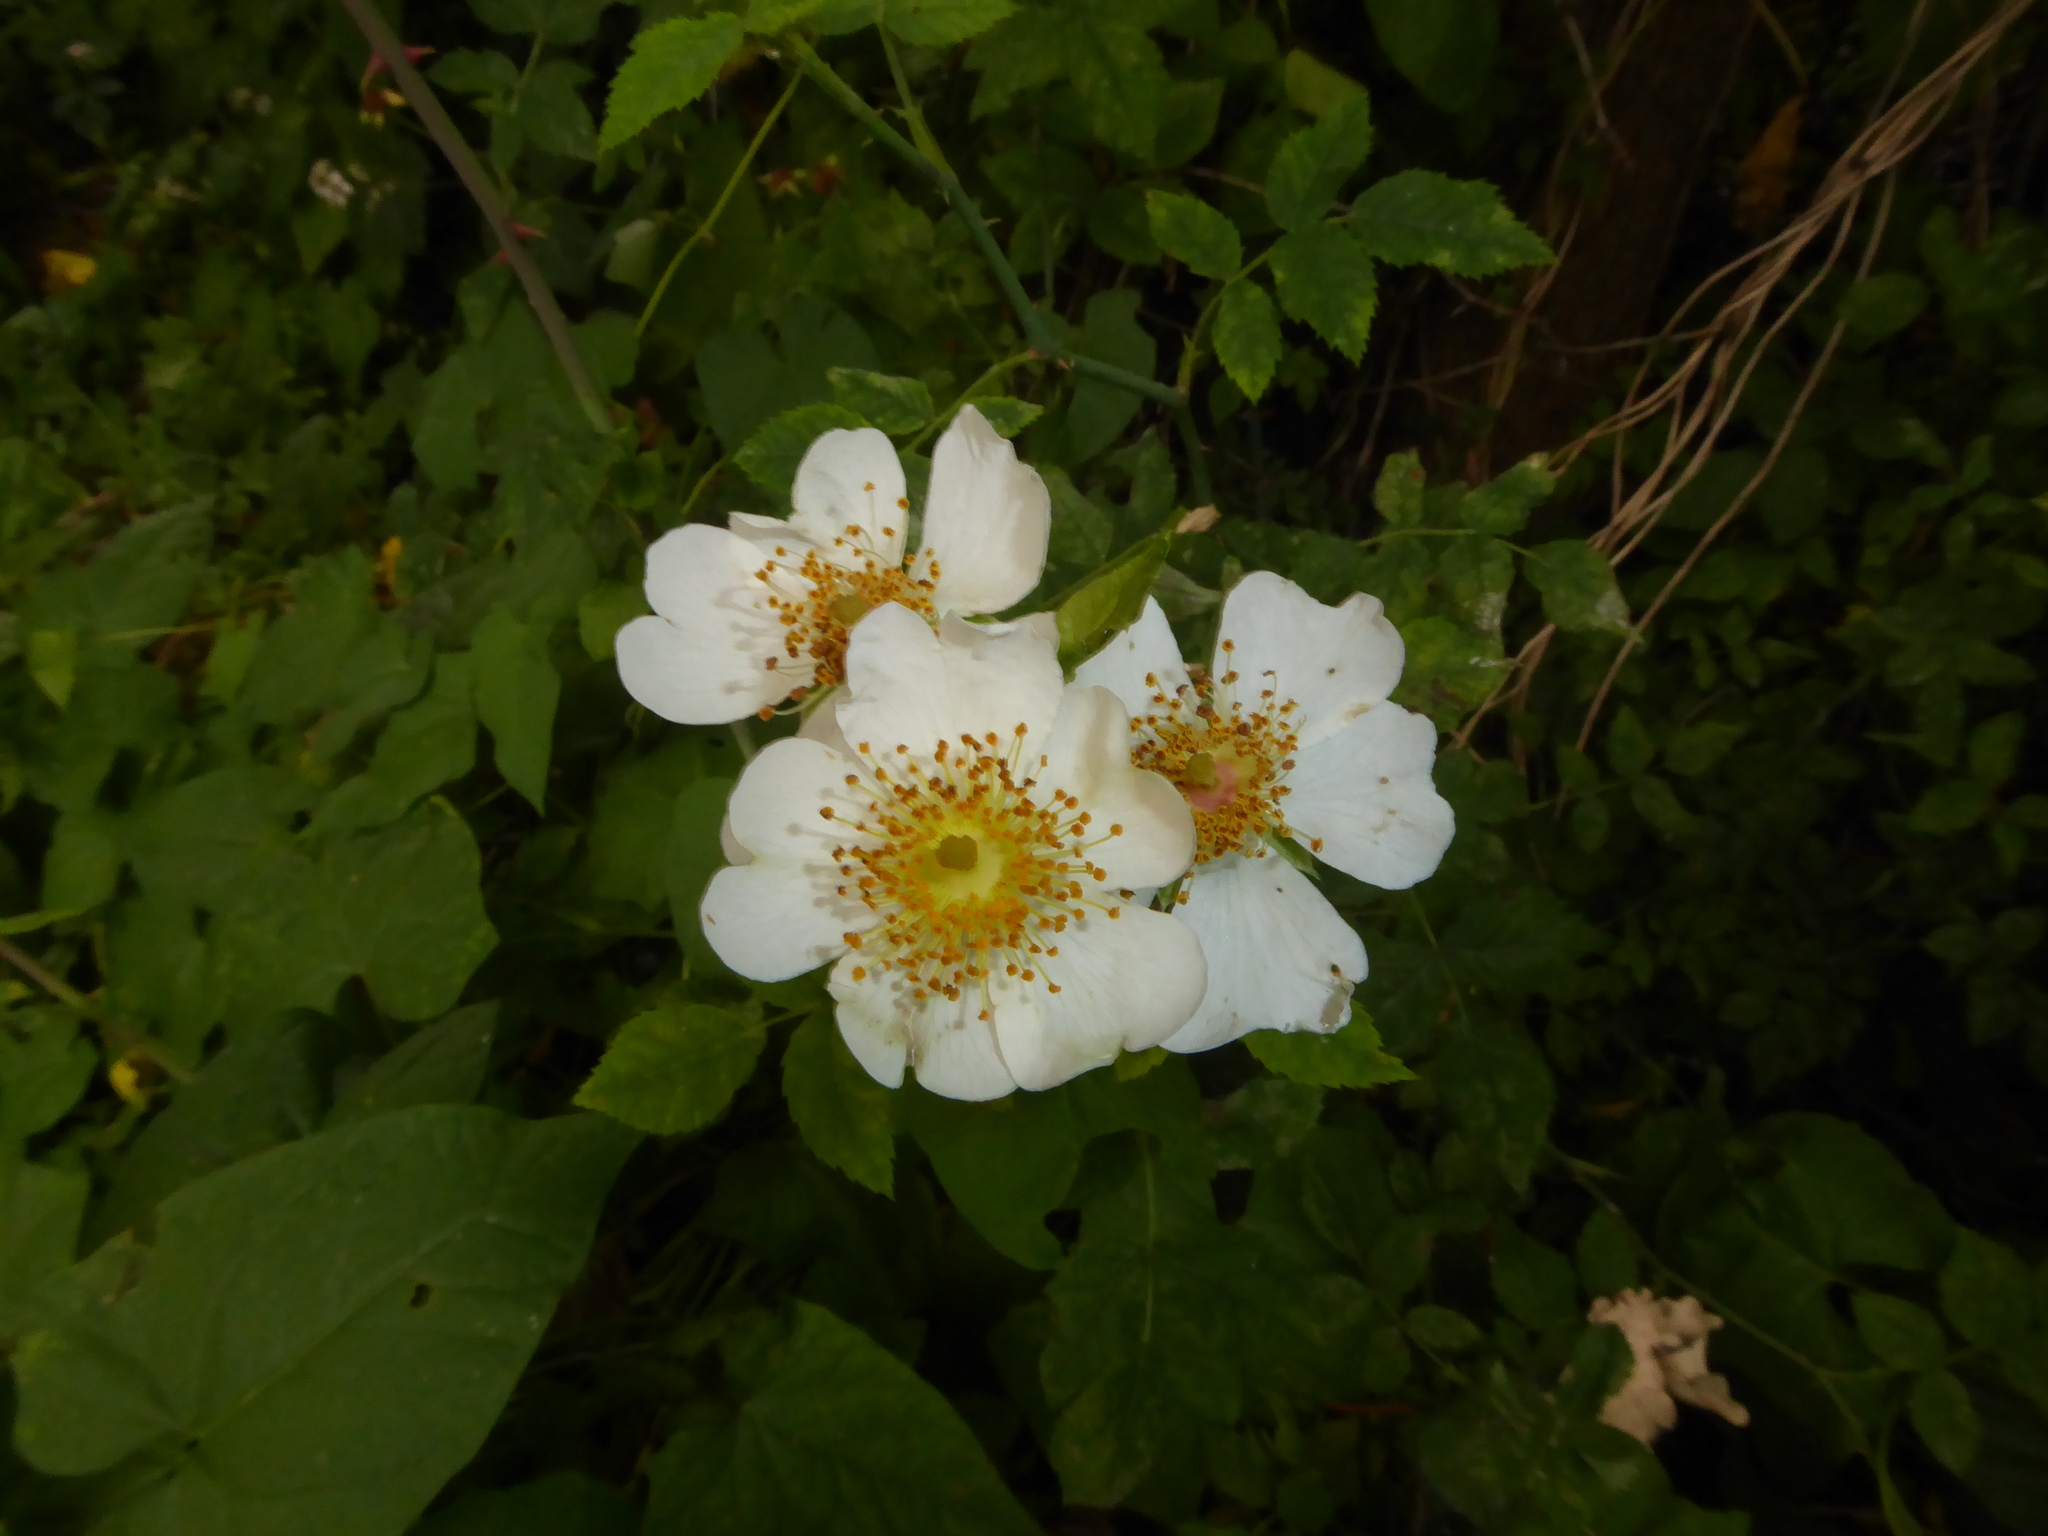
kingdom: Plantae
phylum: Tracheophyta
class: Magnoliopsida
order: Rosales
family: Rosaceae
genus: Rosa
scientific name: Rosa arvensis
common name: Field rose
